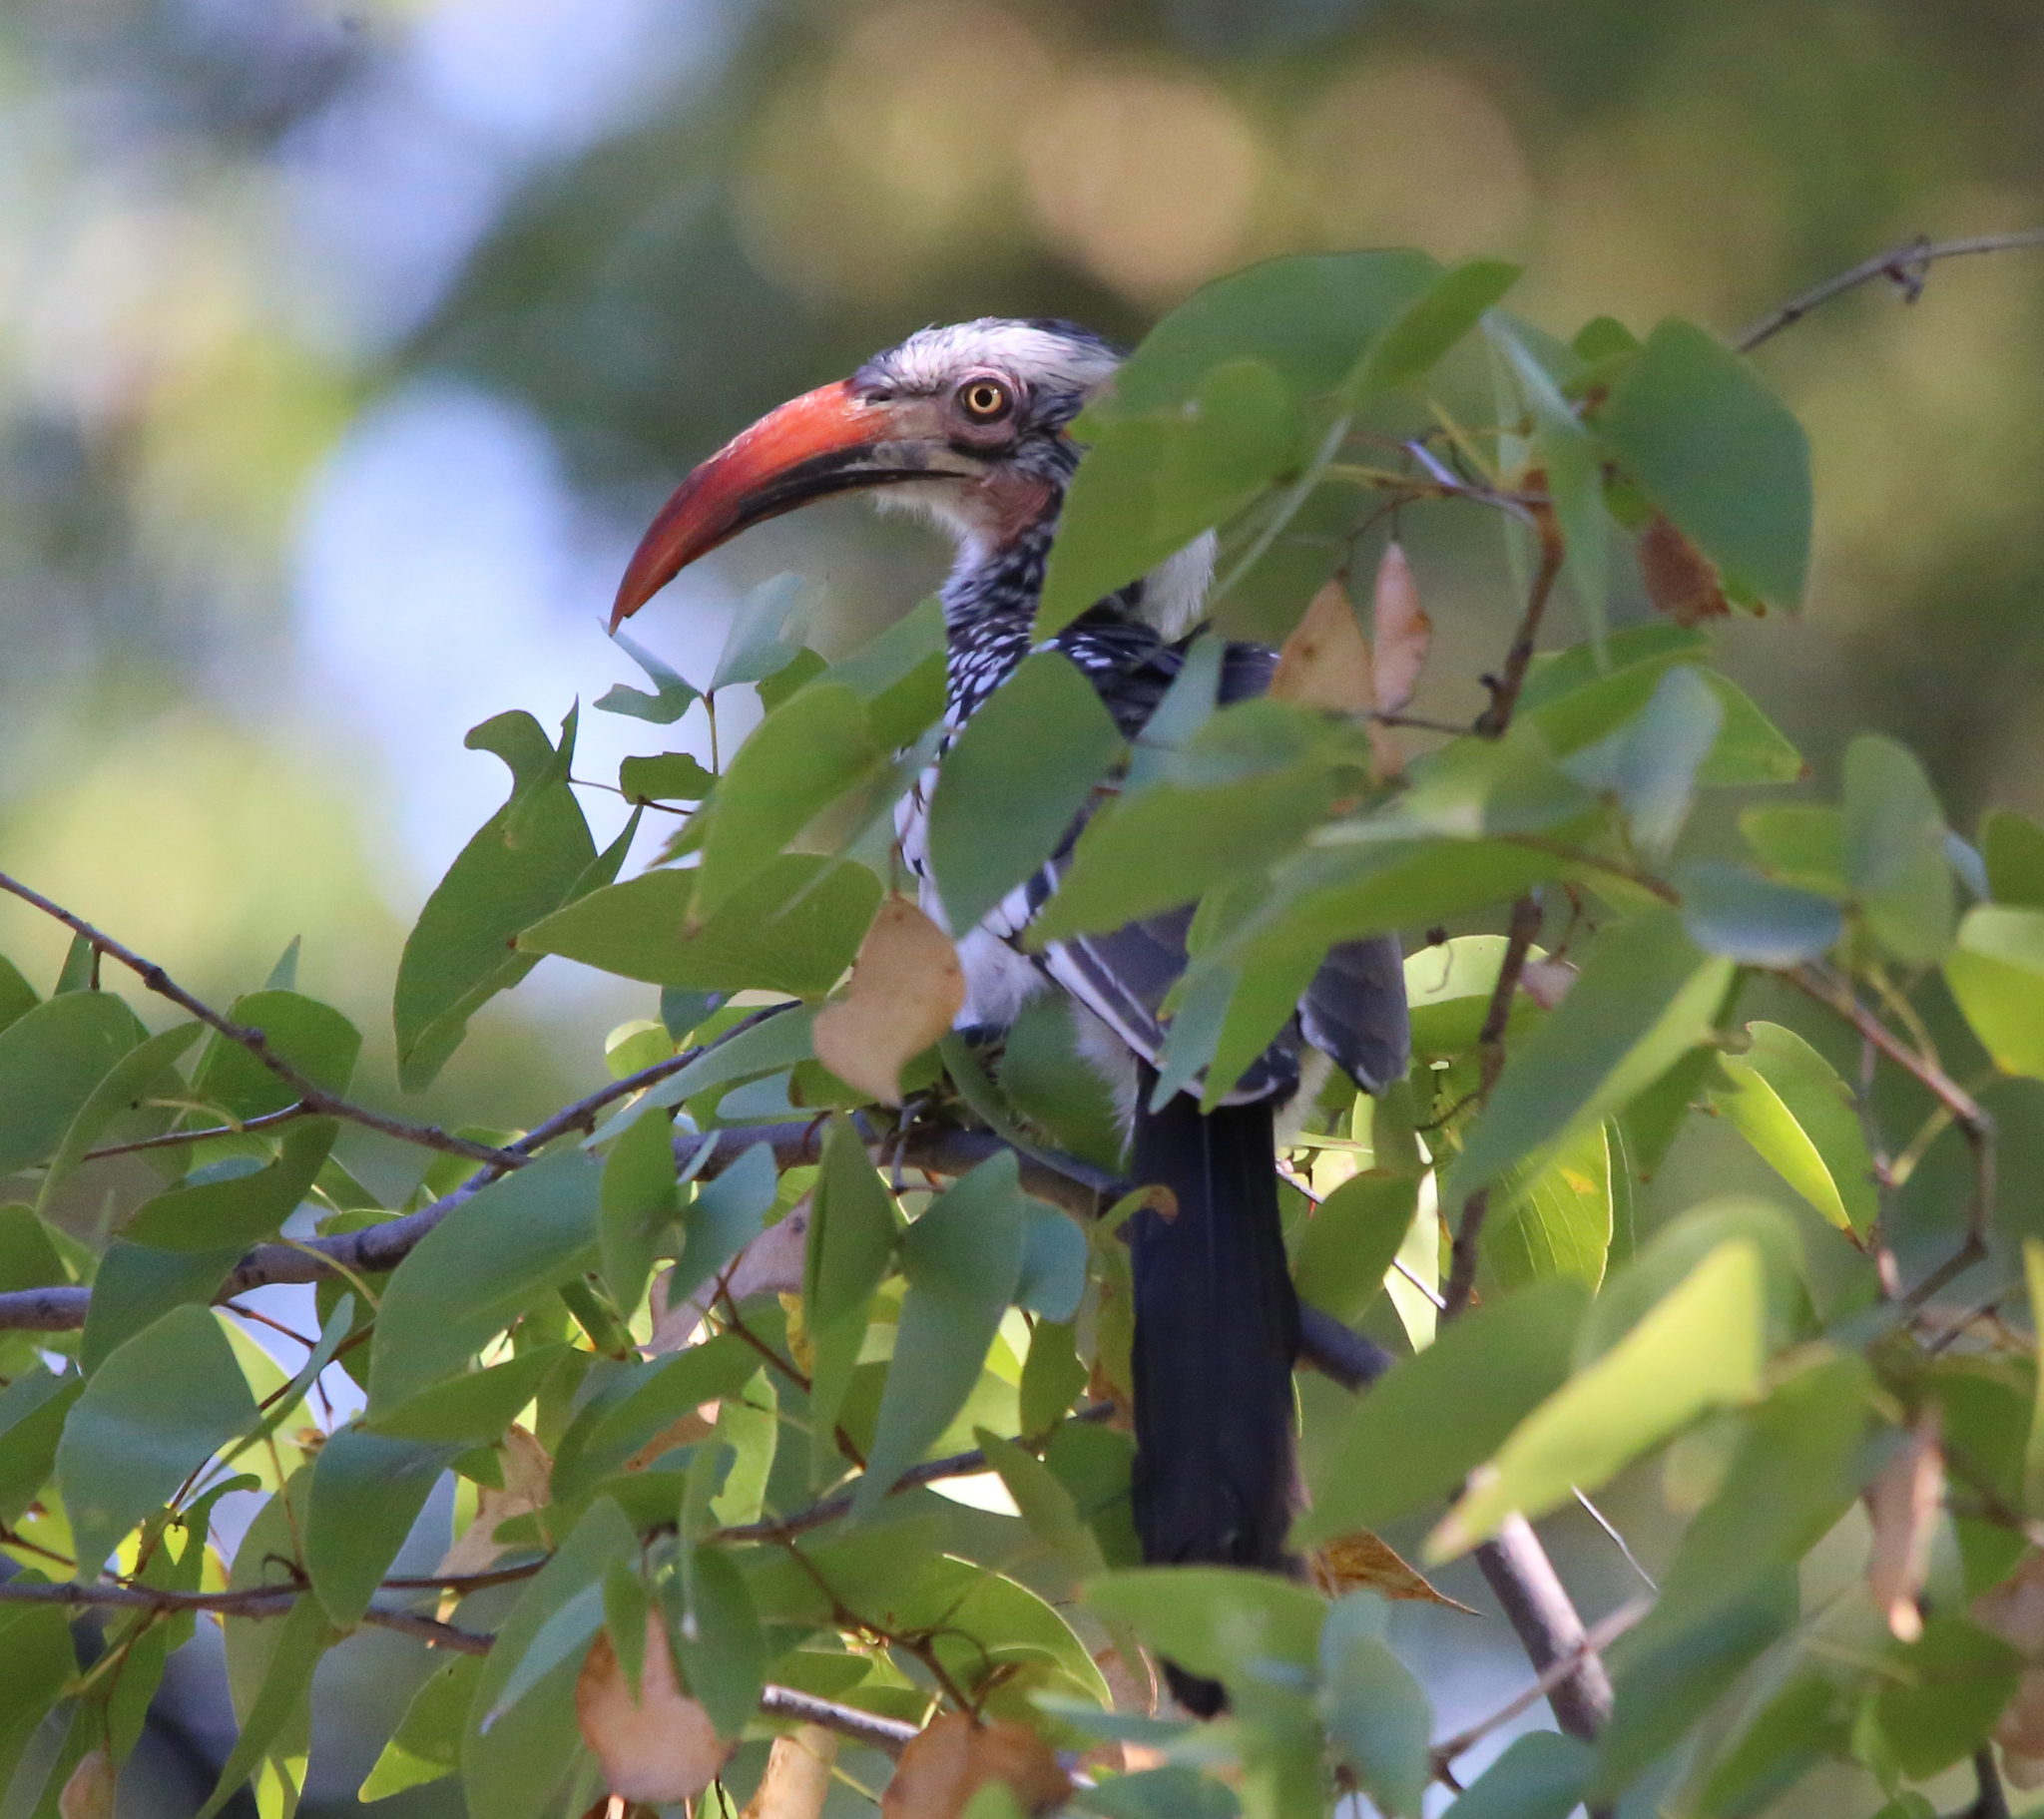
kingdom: Animalia
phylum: Chordata
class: Aves
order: Bucerotiformes
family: Bucerotidae
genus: Tockus
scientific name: Tockus rufirostris
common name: Southern red-billed hornbill
